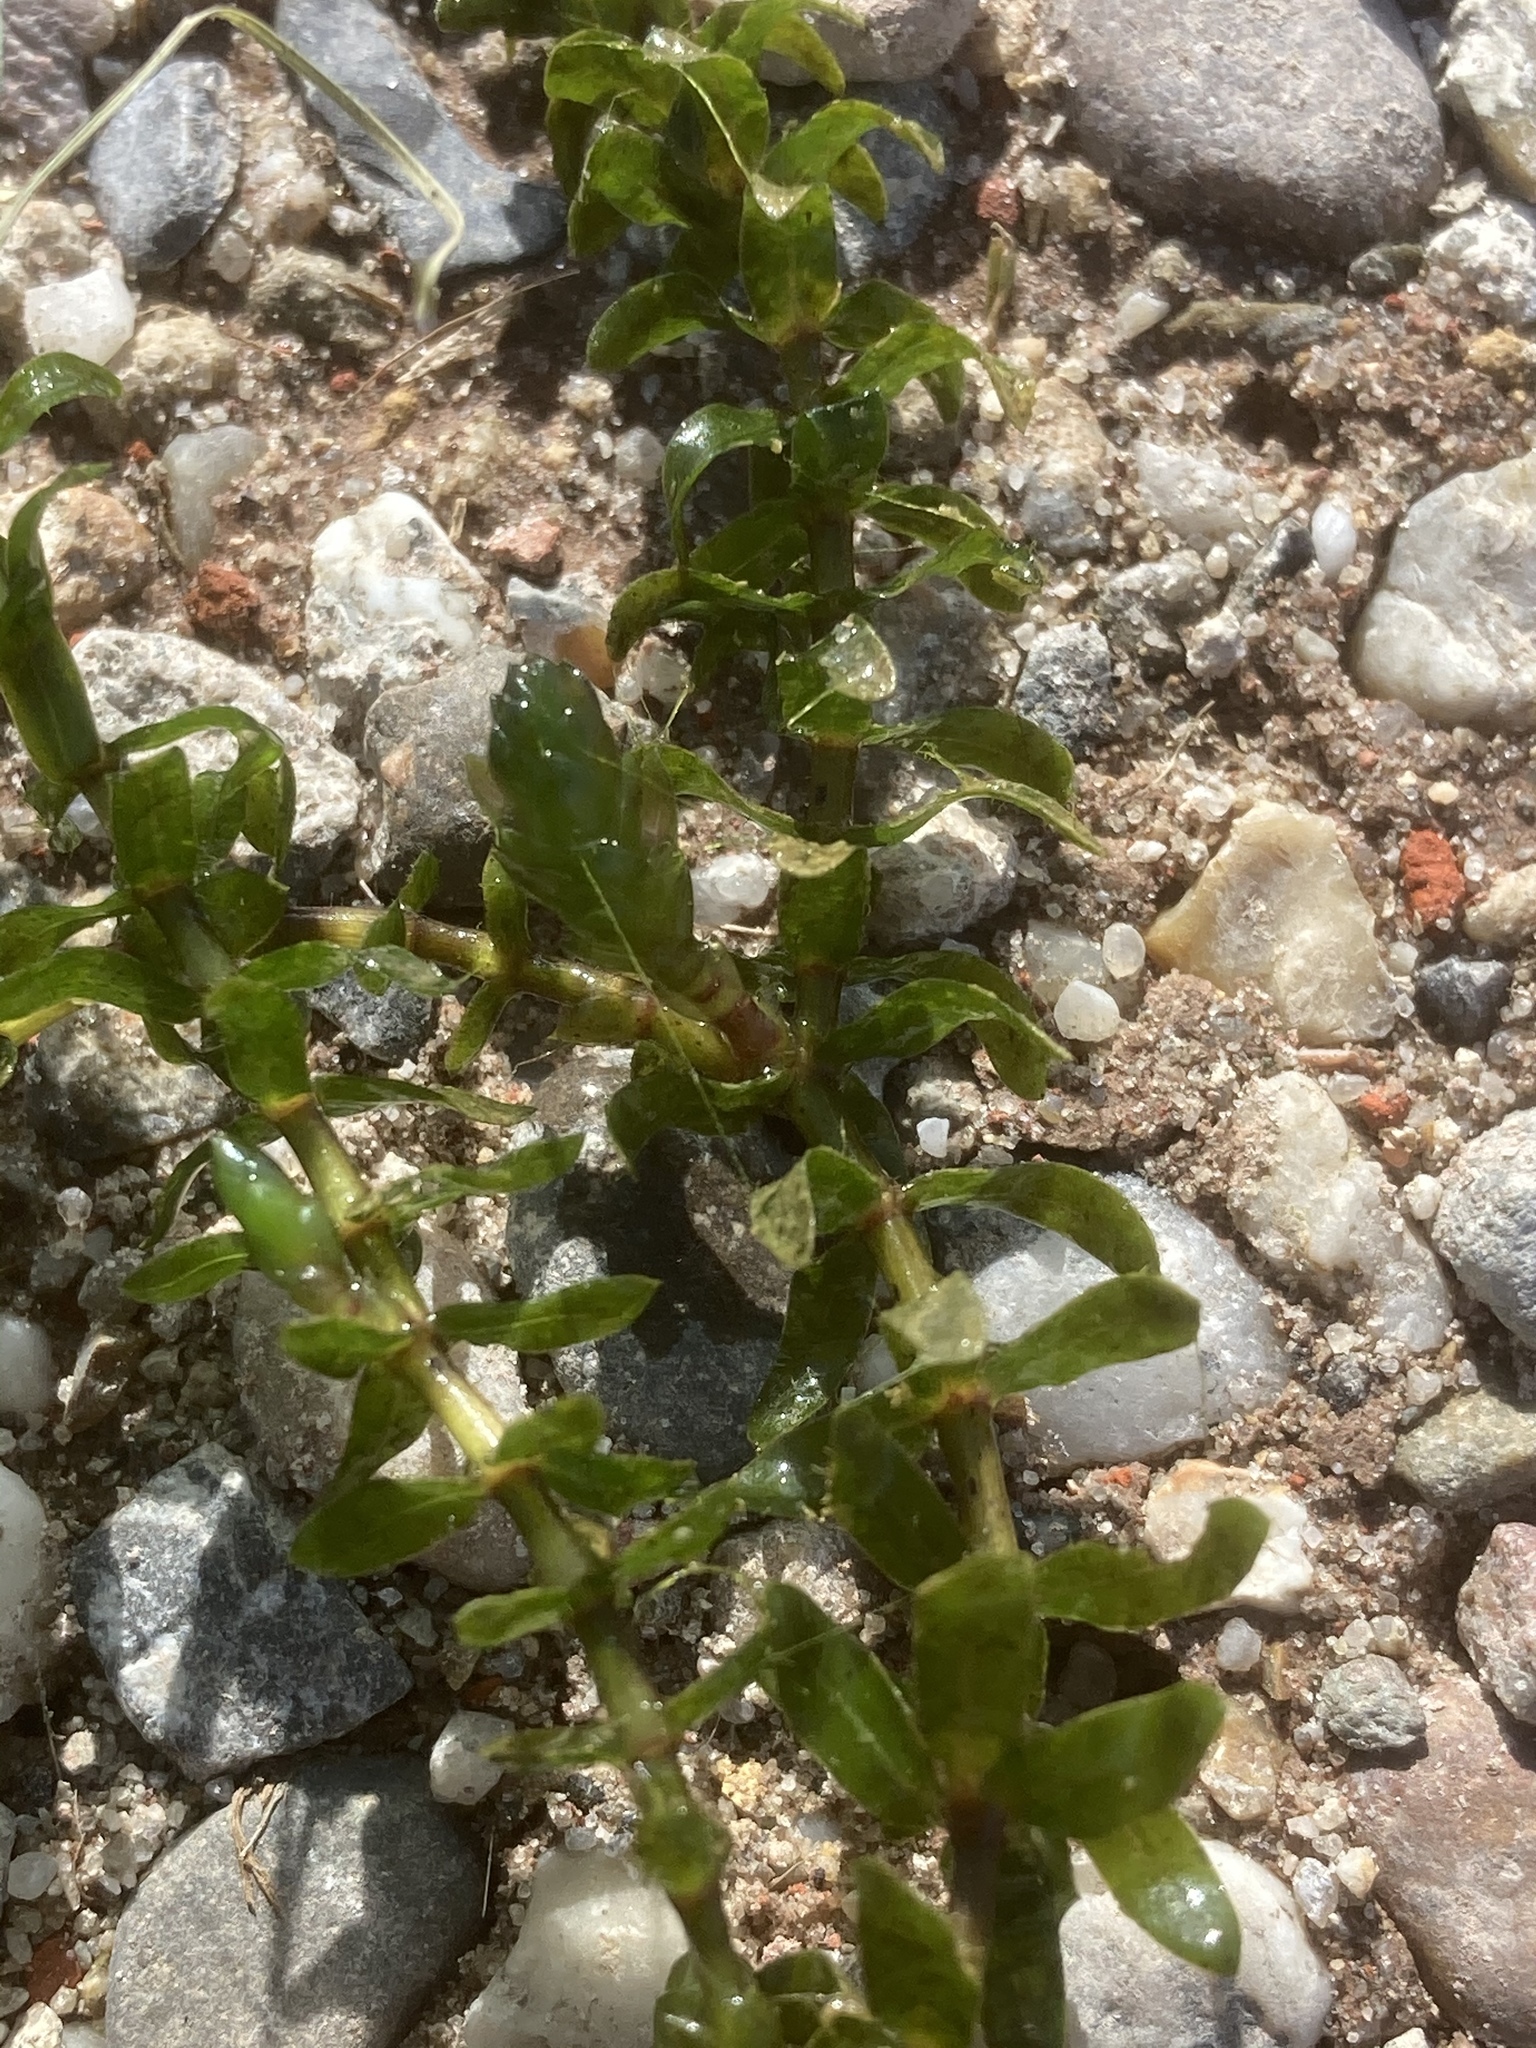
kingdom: Plantae
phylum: Tracheophyta
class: Liliopsida
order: Alismatales
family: Hydrocharitaceae
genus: Elodea
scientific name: Elodea canadensis
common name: Canadian waterweed
